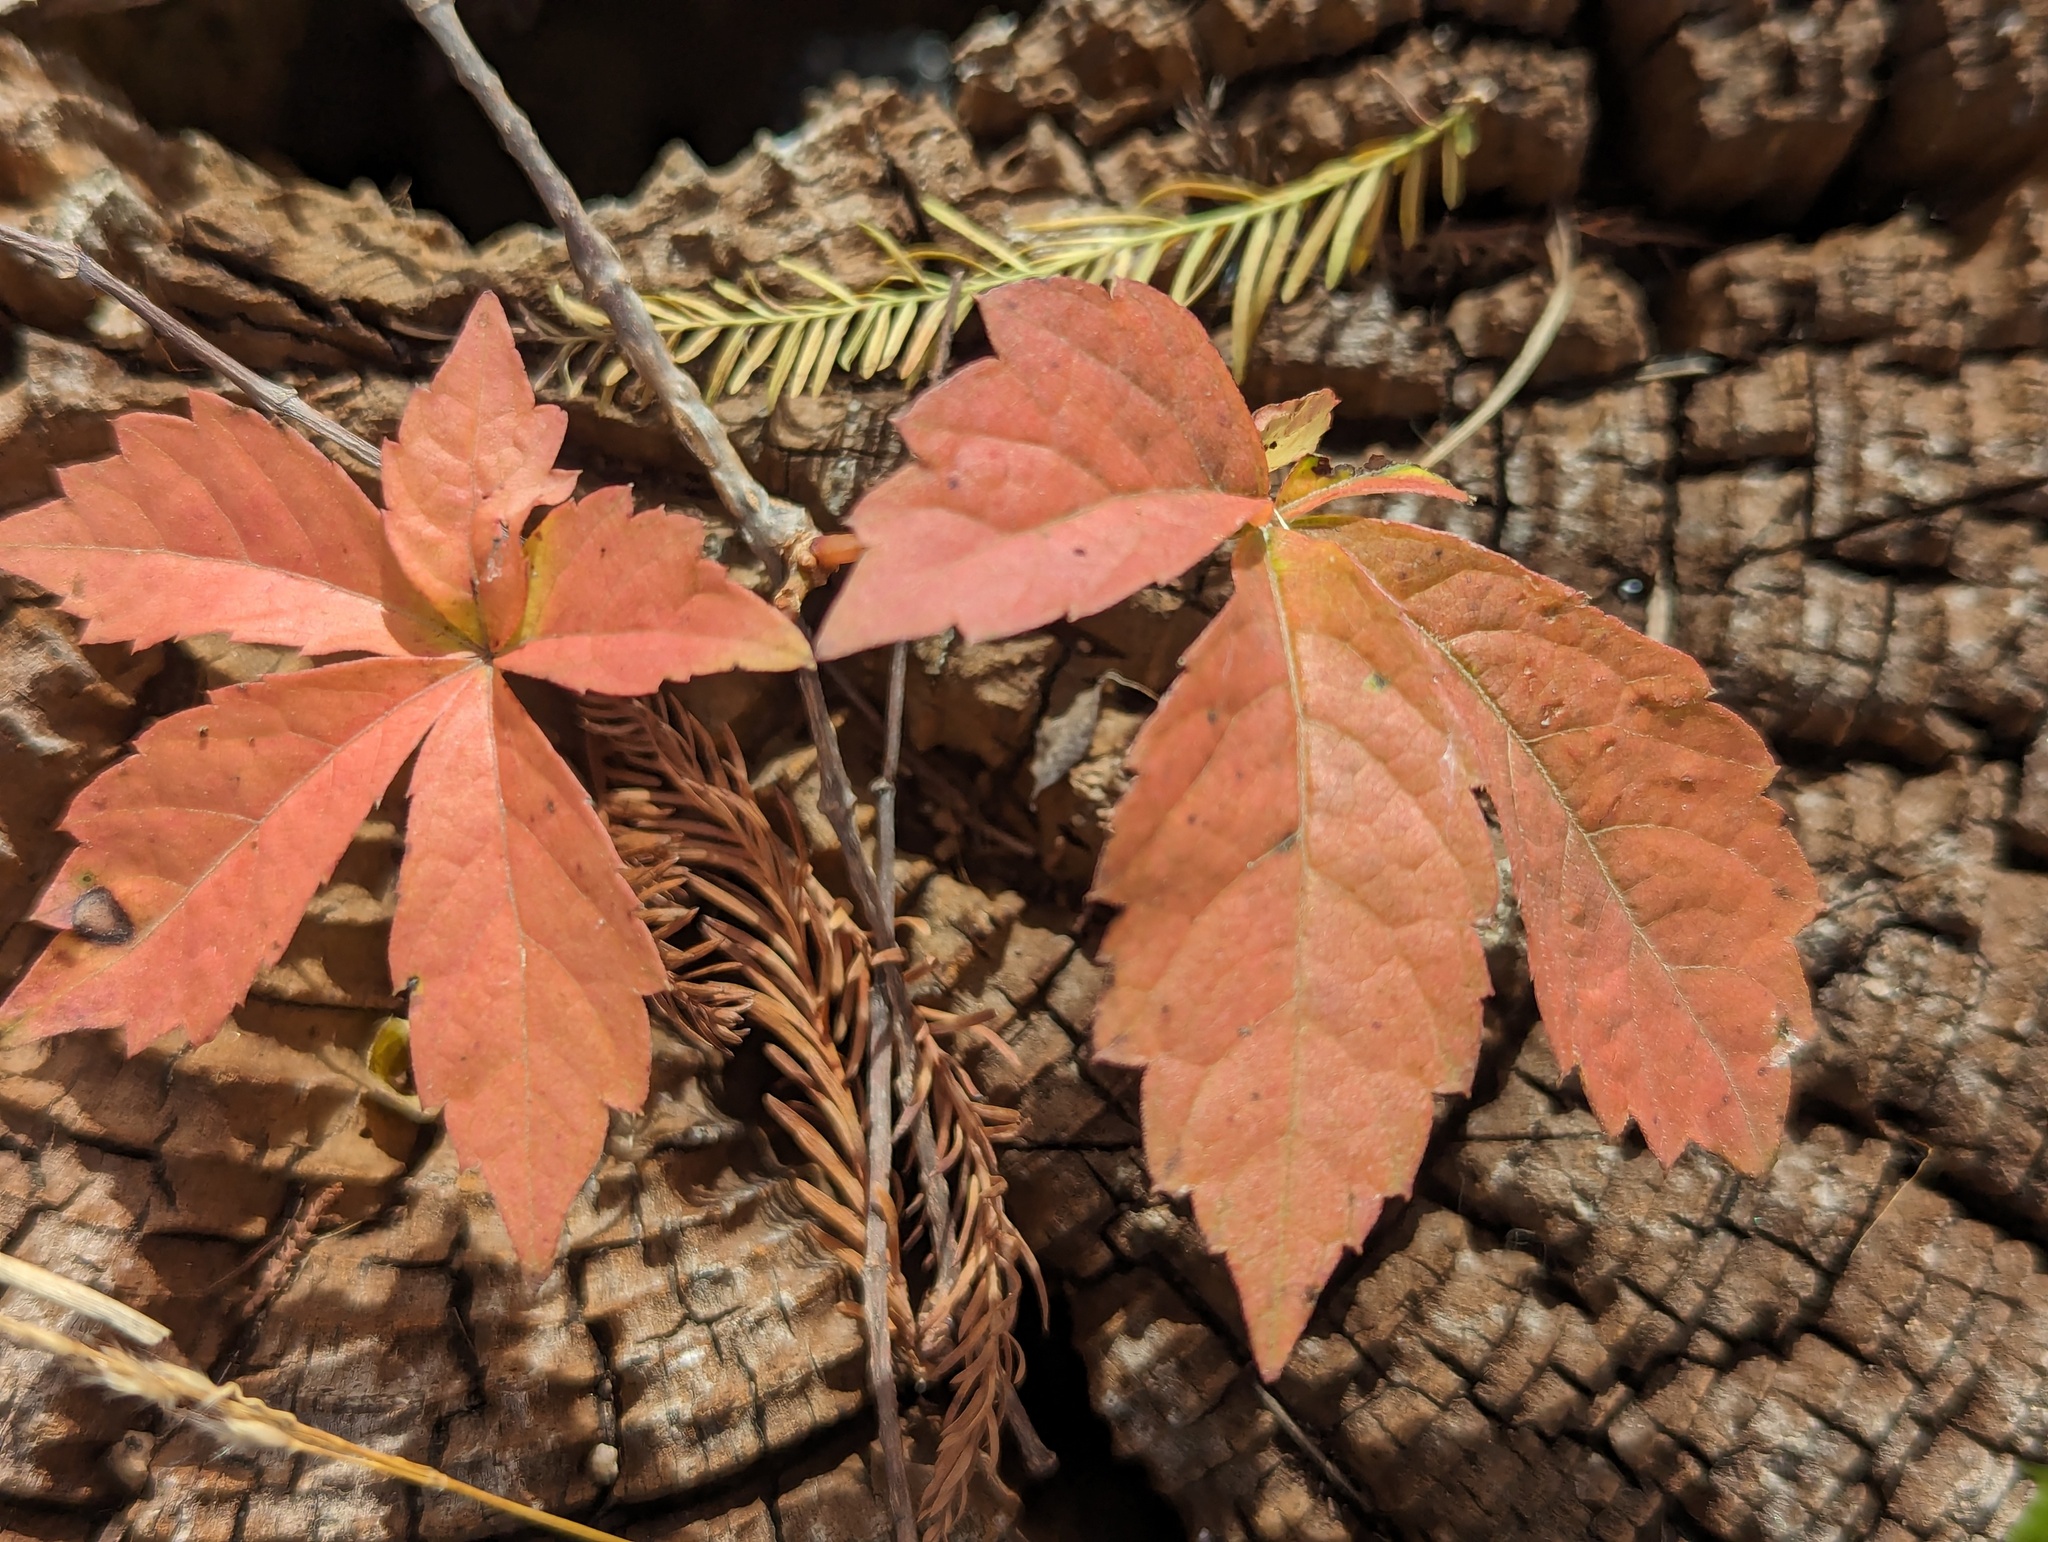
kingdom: Plantae
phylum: Tracheophyta
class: Magnoliopsida
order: Vitales
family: Vitaceae
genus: Parthenocissus
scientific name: Parthenocissus quinquefolia
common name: Virginia-creeper
